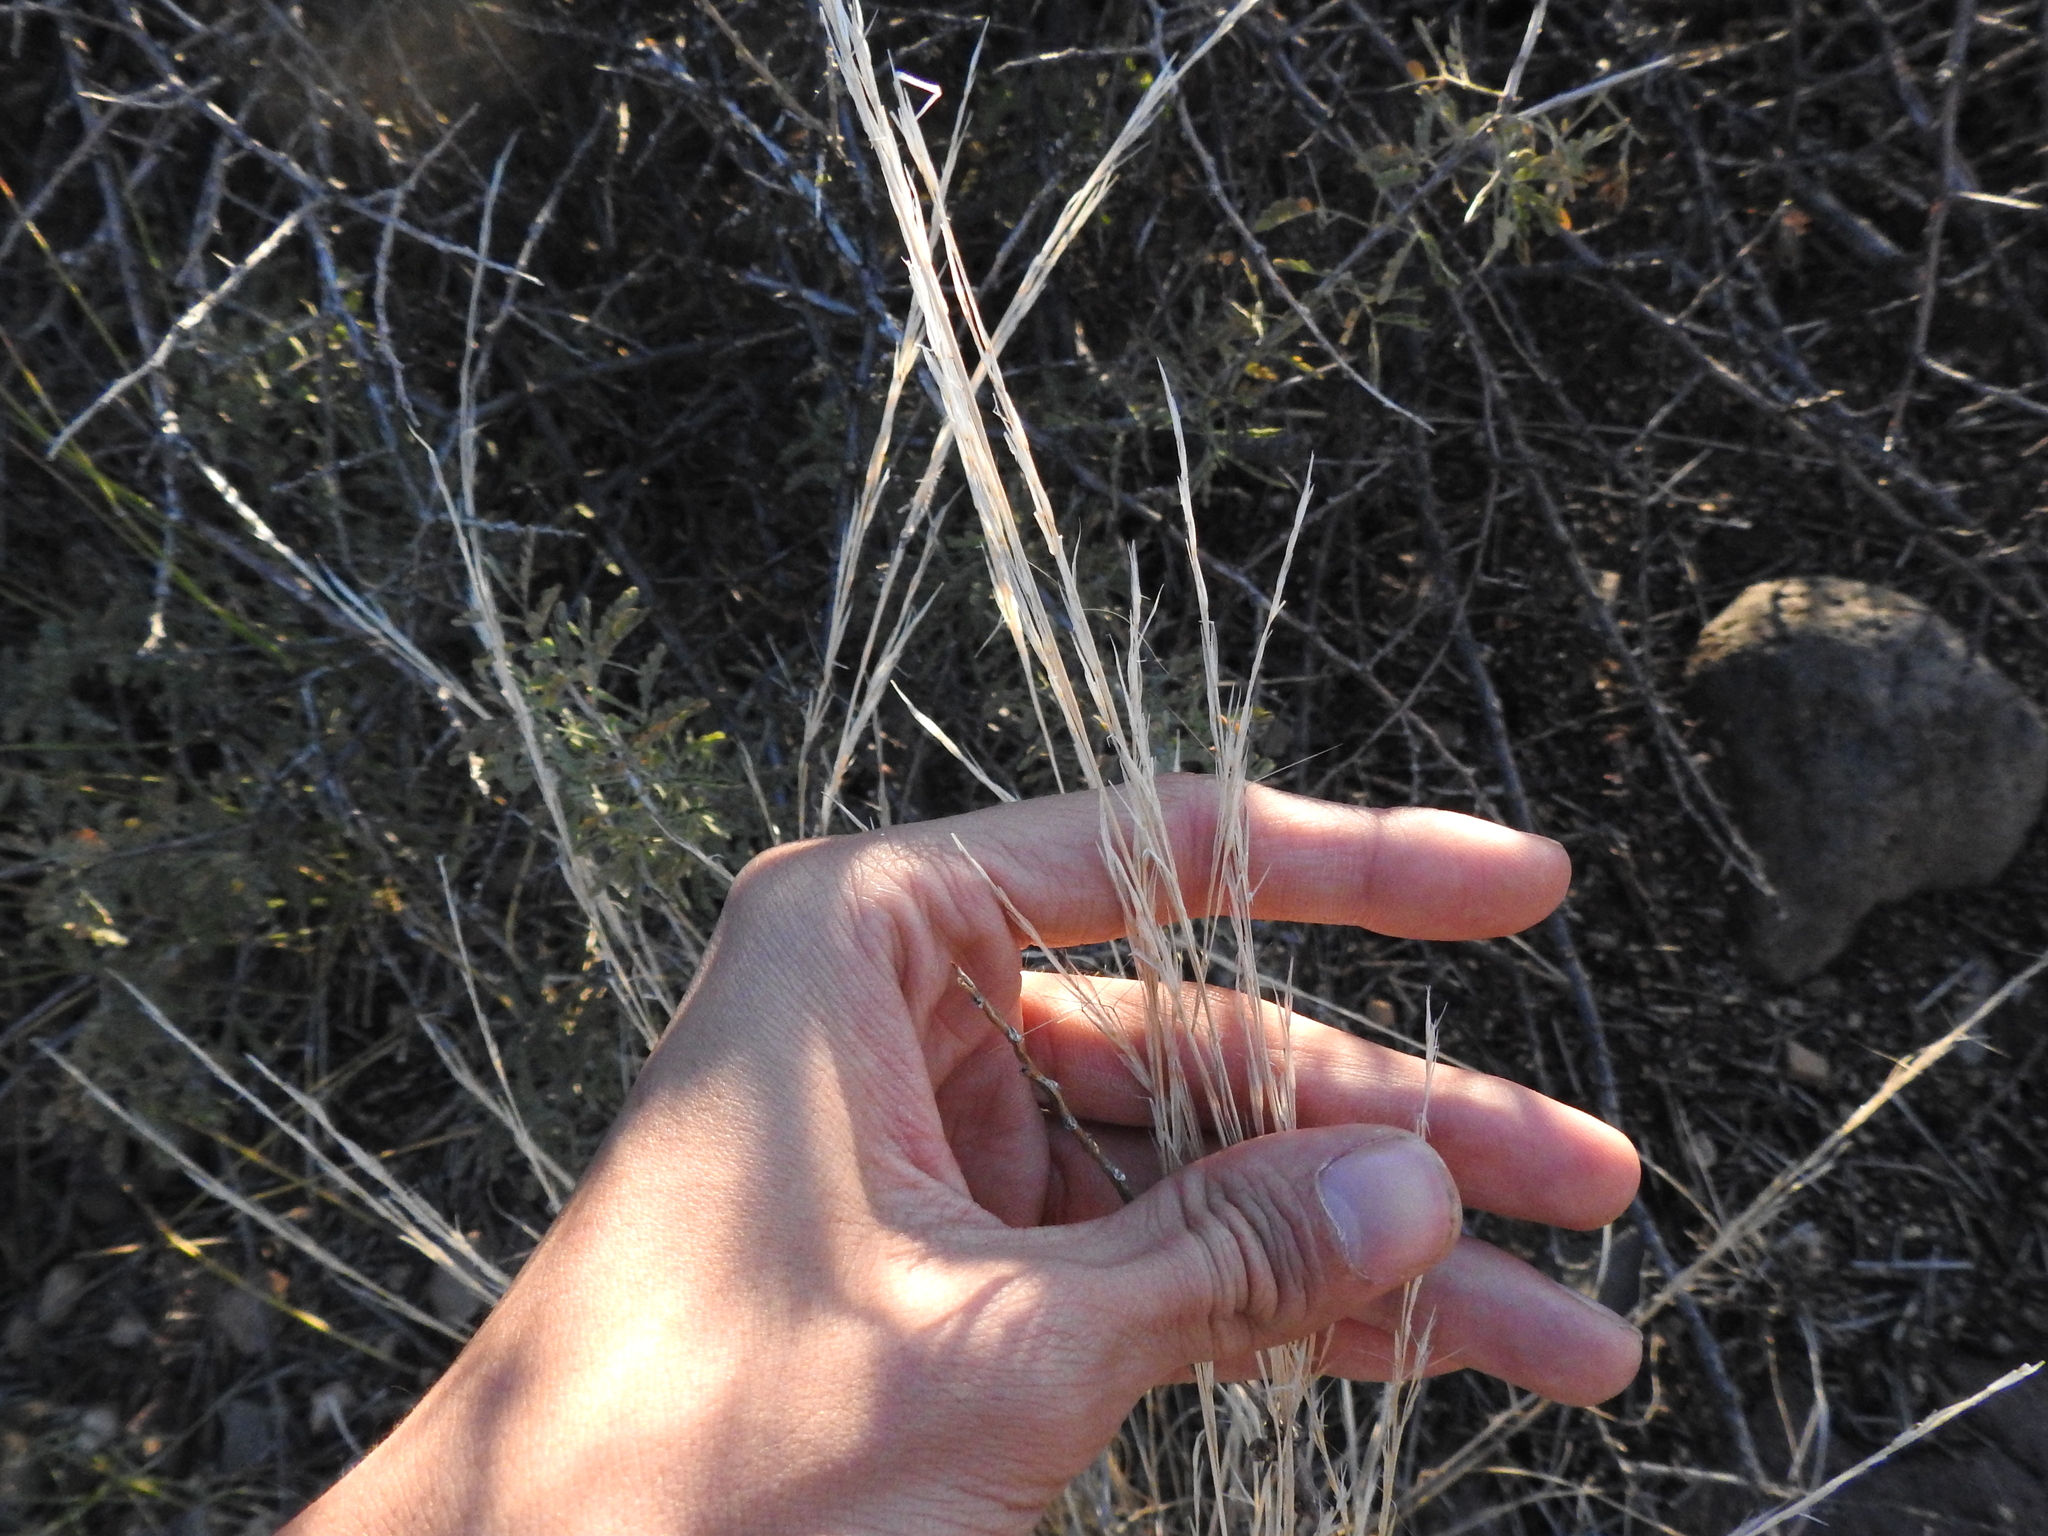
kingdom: Plantae
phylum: Tracheophyta
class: Liliopsida
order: Poales
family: Poaceae
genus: Aristida
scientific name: Aristida adscensionis
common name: Sixweeks threeawn
